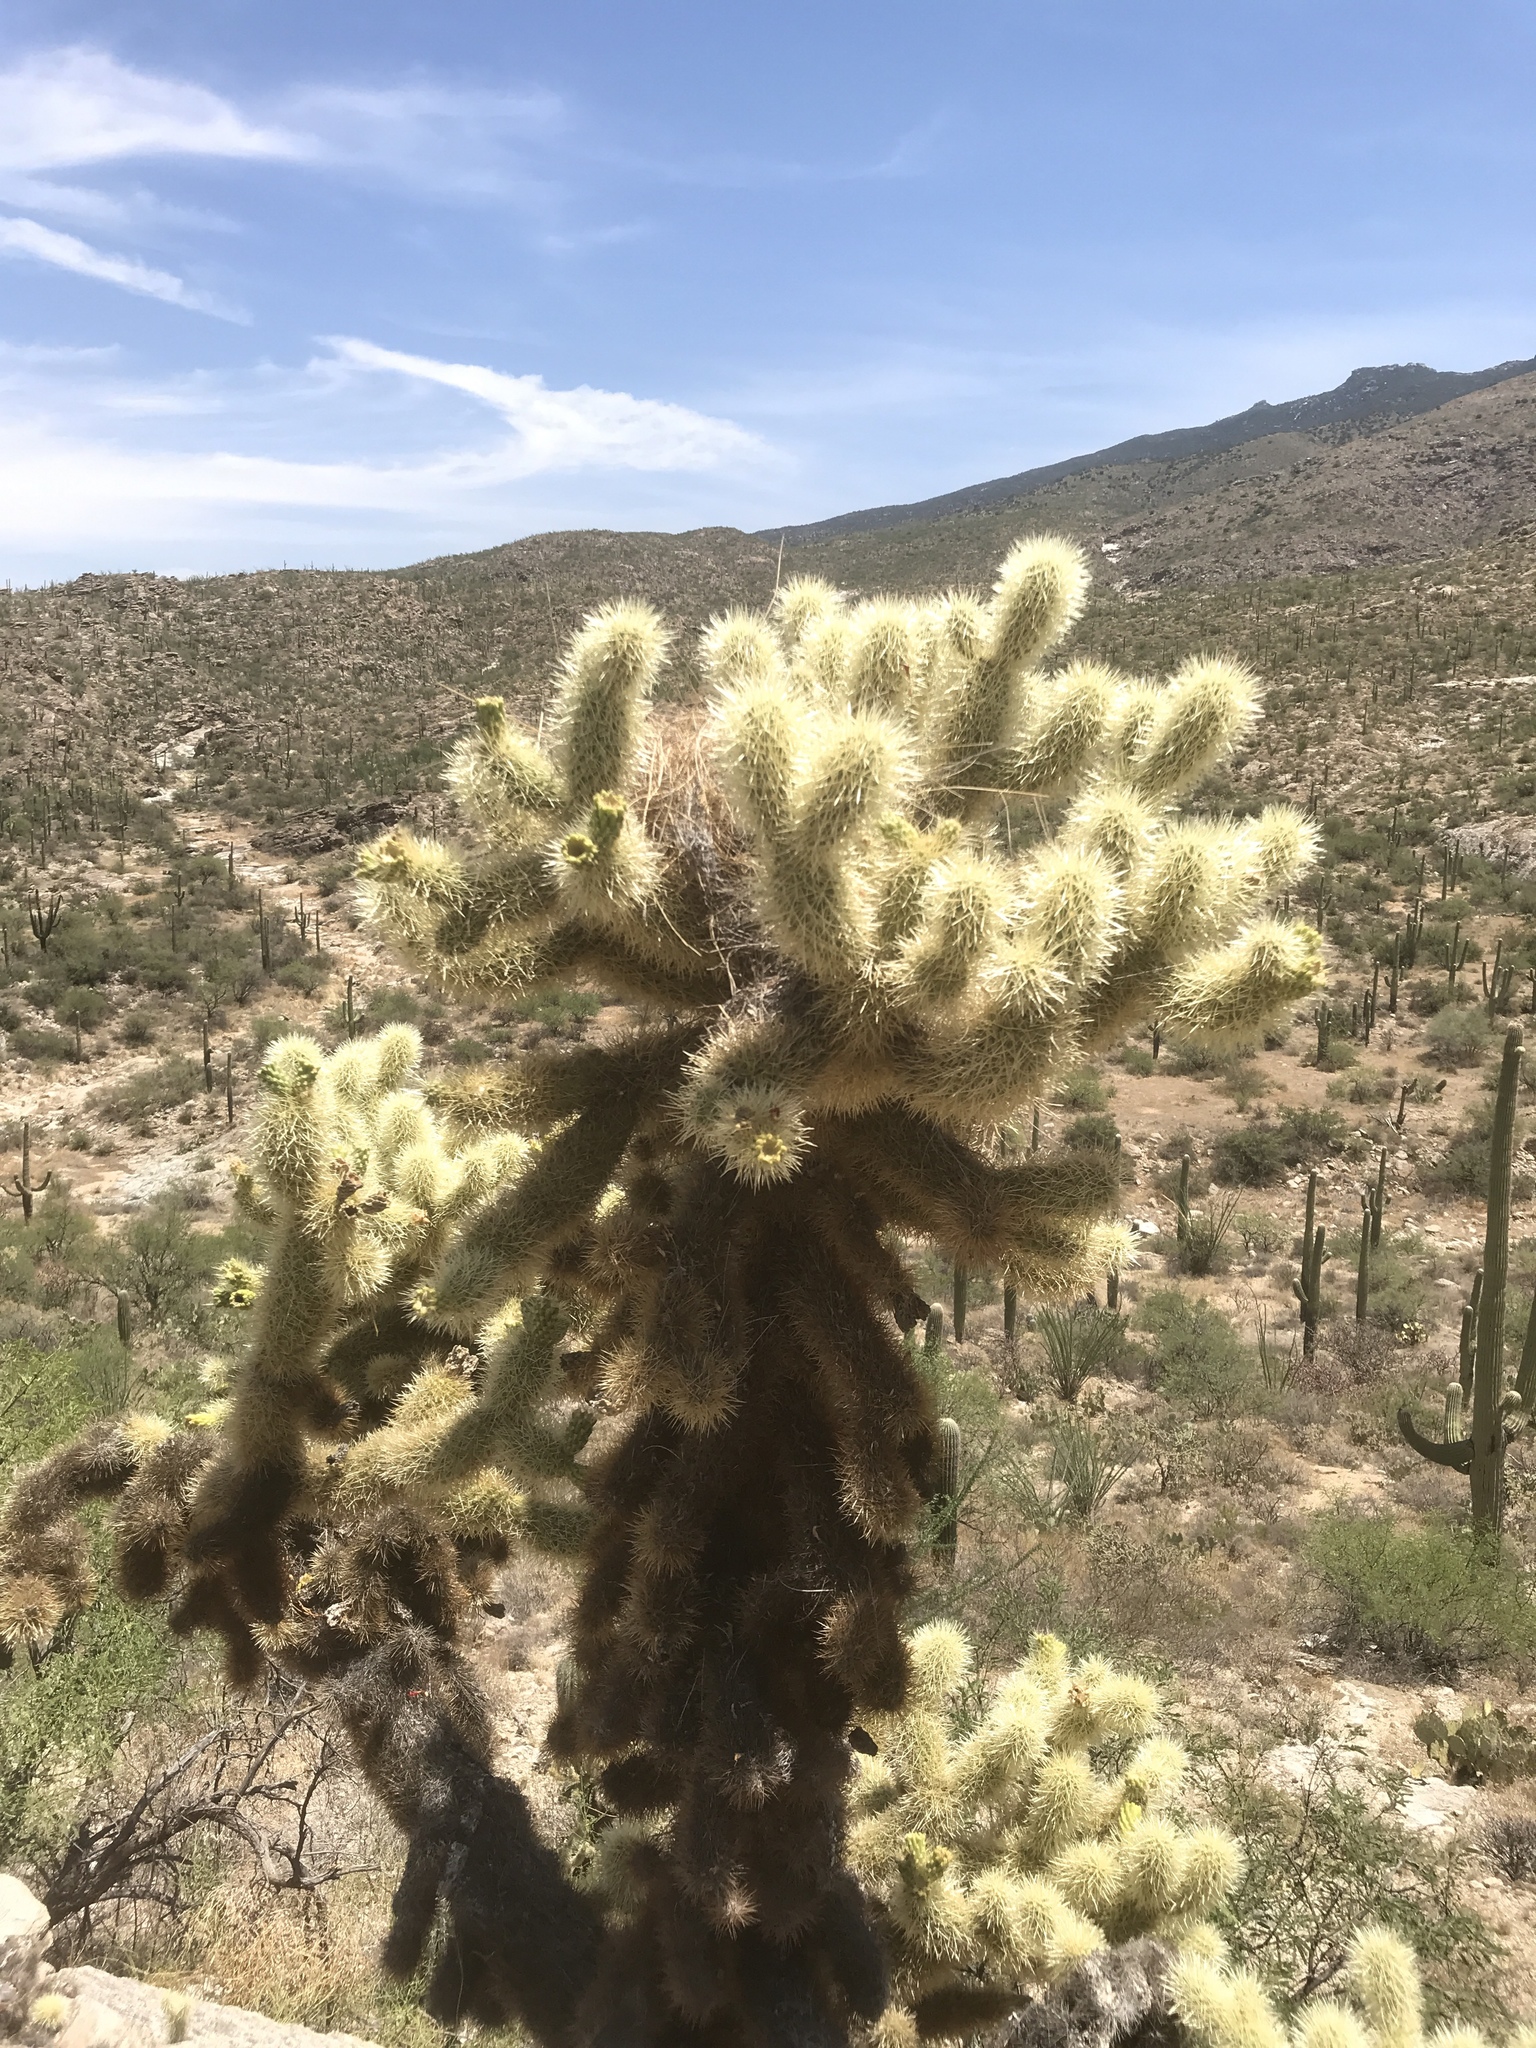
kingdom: Plantae
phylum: Tracheophyta
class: Magnoliopsida
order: Caryophyllales
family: Cactaceae
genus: Cylindropuntia
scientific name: Cylindropuntia fosbergii
